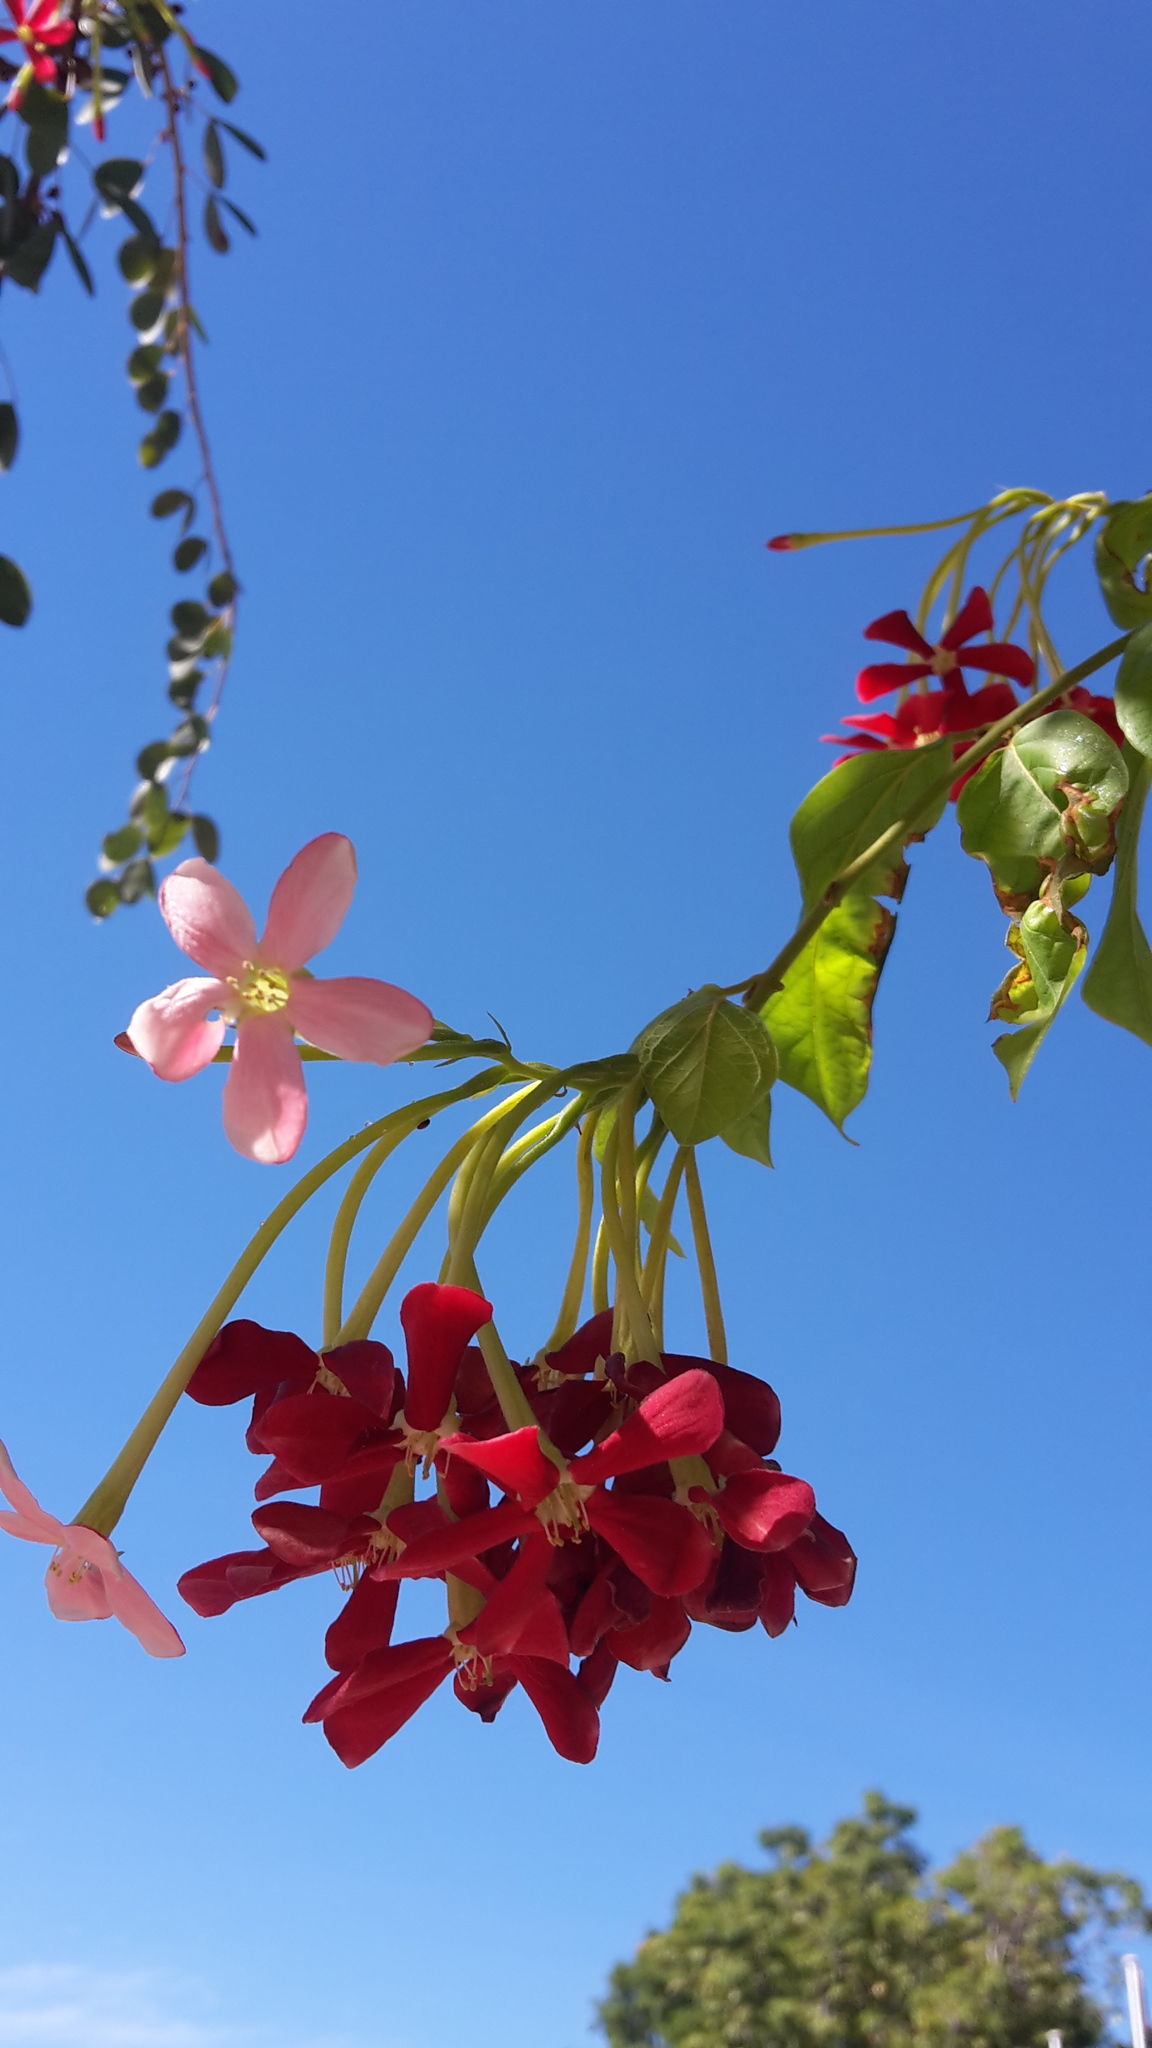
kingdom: Plantae
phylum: Tracheophyta
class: Magnoliopsida
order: Myrtales
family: Combretaceae
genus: Combretum
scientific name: Combretum indicum
